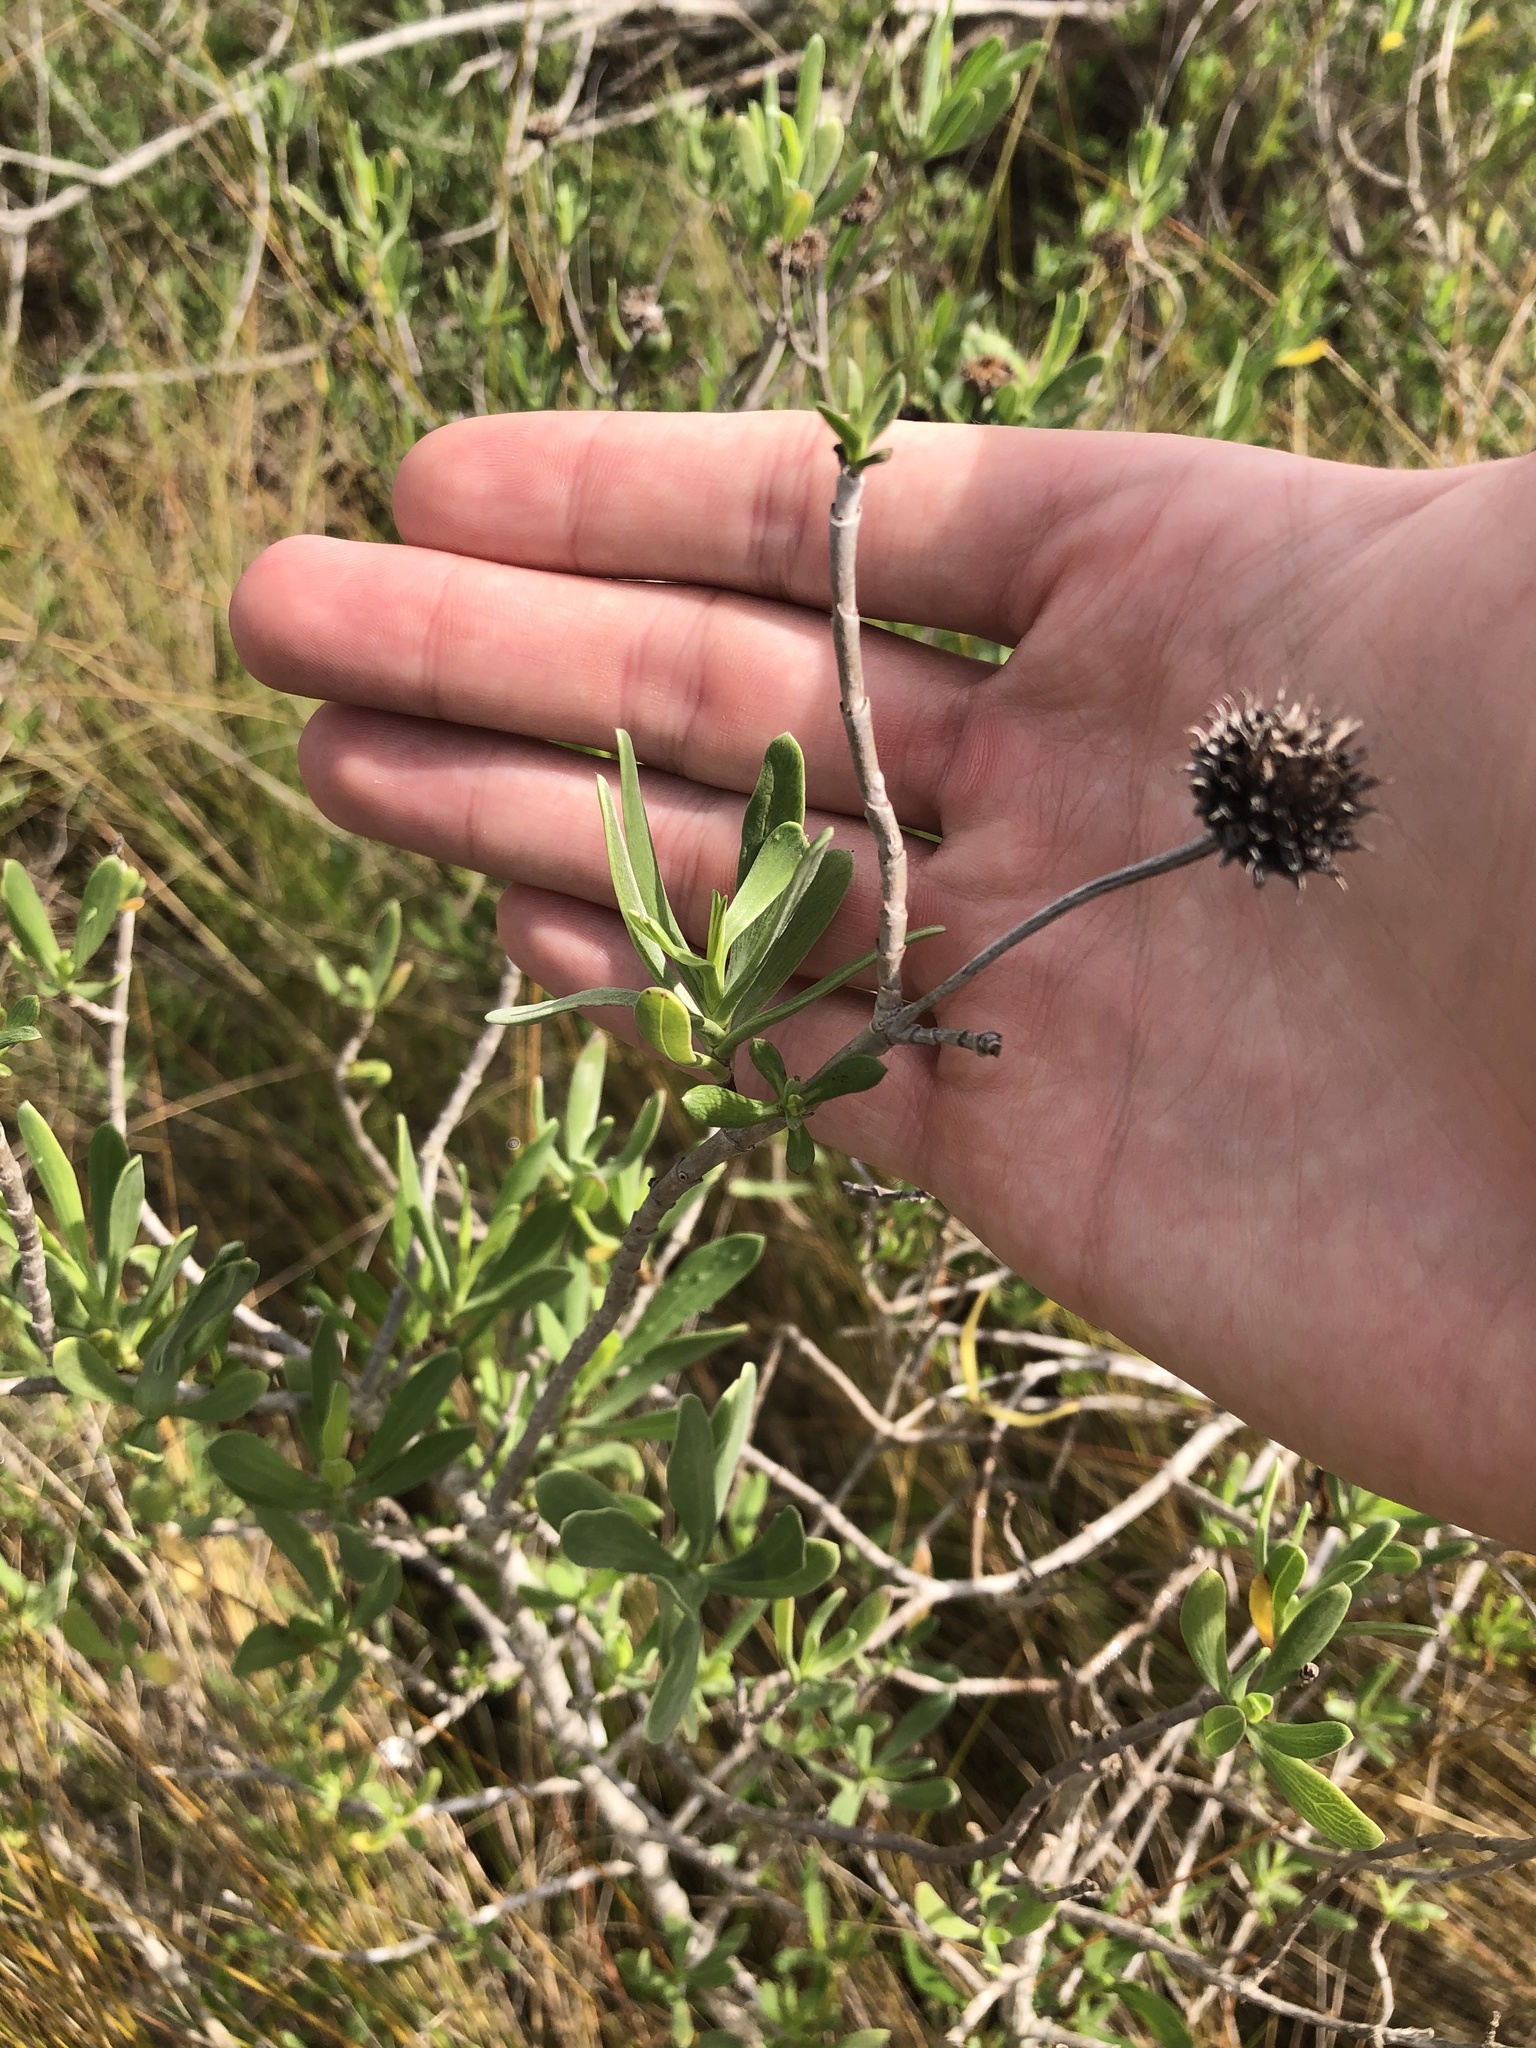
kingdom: Plantae
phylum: Tracheophyta
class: Magnoliopsida
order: Asterales
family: Asteraceae
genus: Borrichia
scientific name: Borrichia frutescens
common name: Sea oxeye
